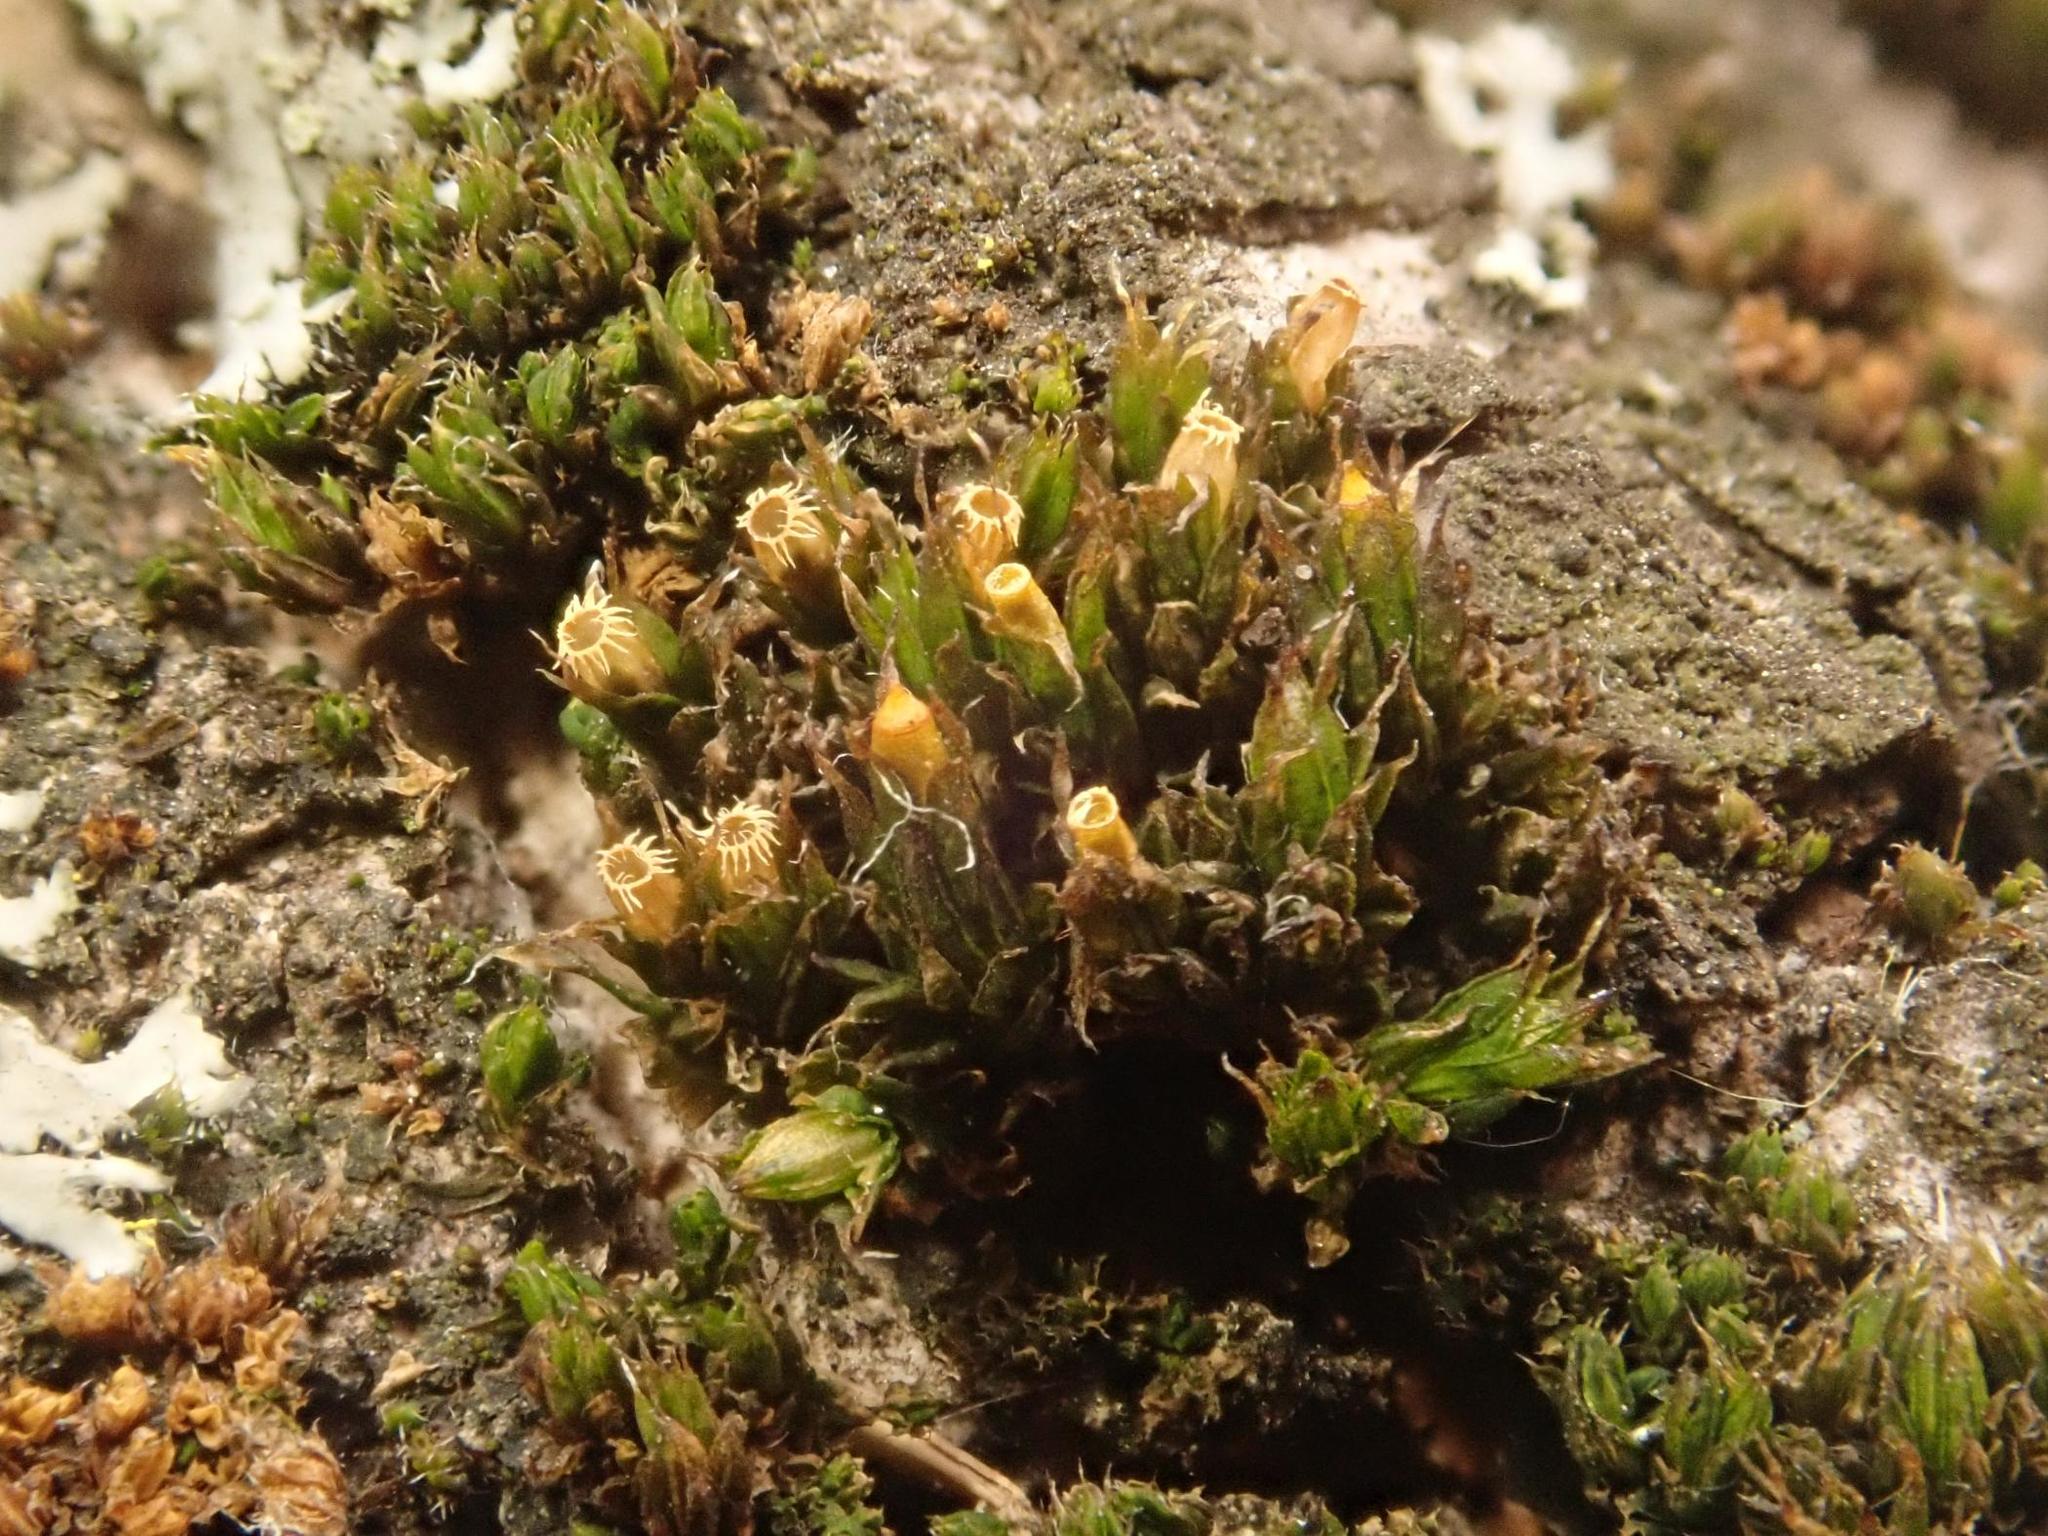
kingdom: Plantae
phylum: Bryophyta
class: Bryopsida
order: Orthotrichales
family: Orthotrichaceae
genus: Orthotrichum
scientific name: Orthotrichum diaphanum
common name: White-tipped bristle-moss
